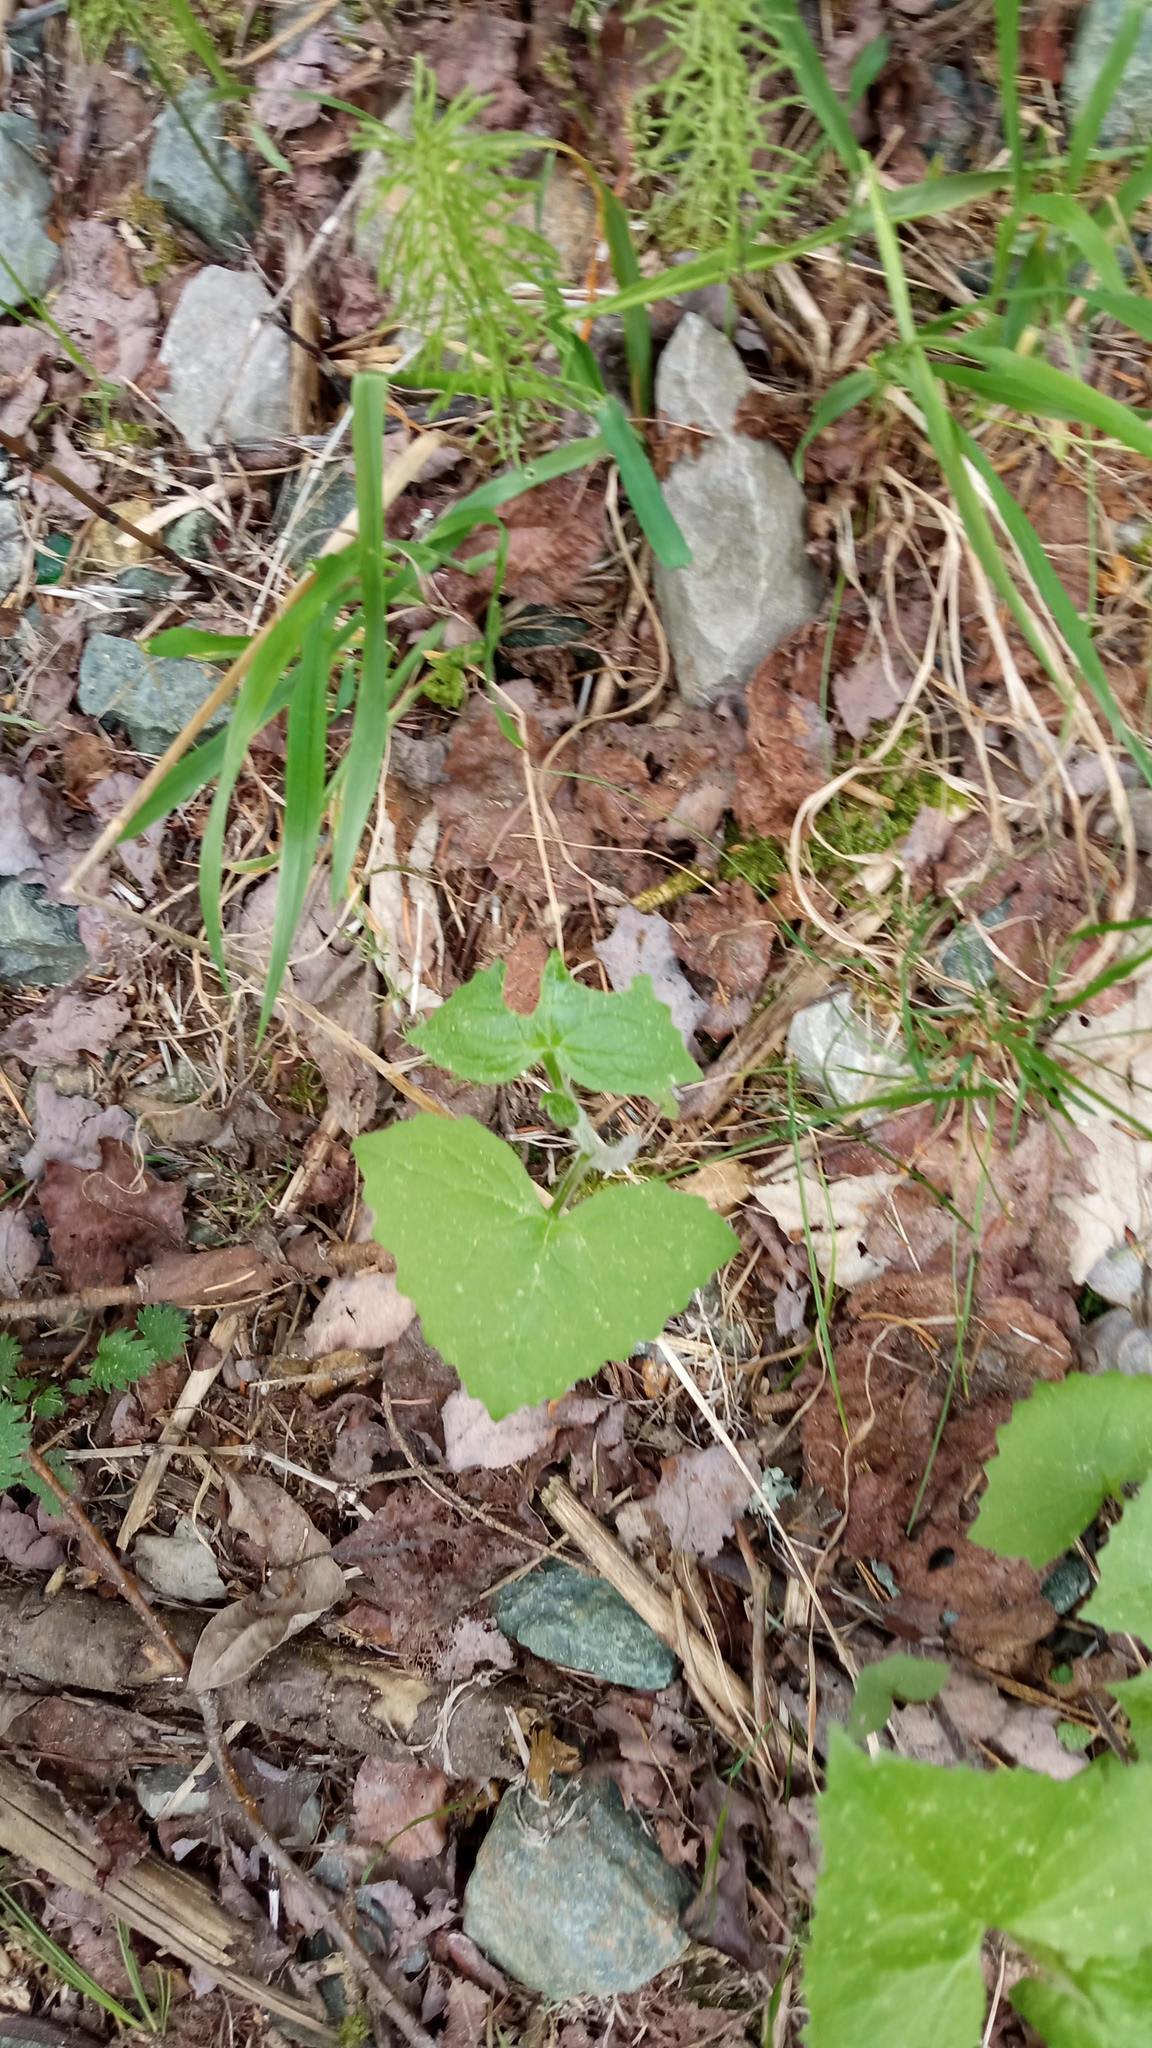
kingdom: Plantae
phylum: Tracheophyta
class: Magnoliopsida
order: Asterales
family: Asteraceae
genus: Parasenecio
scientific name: Parasenecio hastatus
